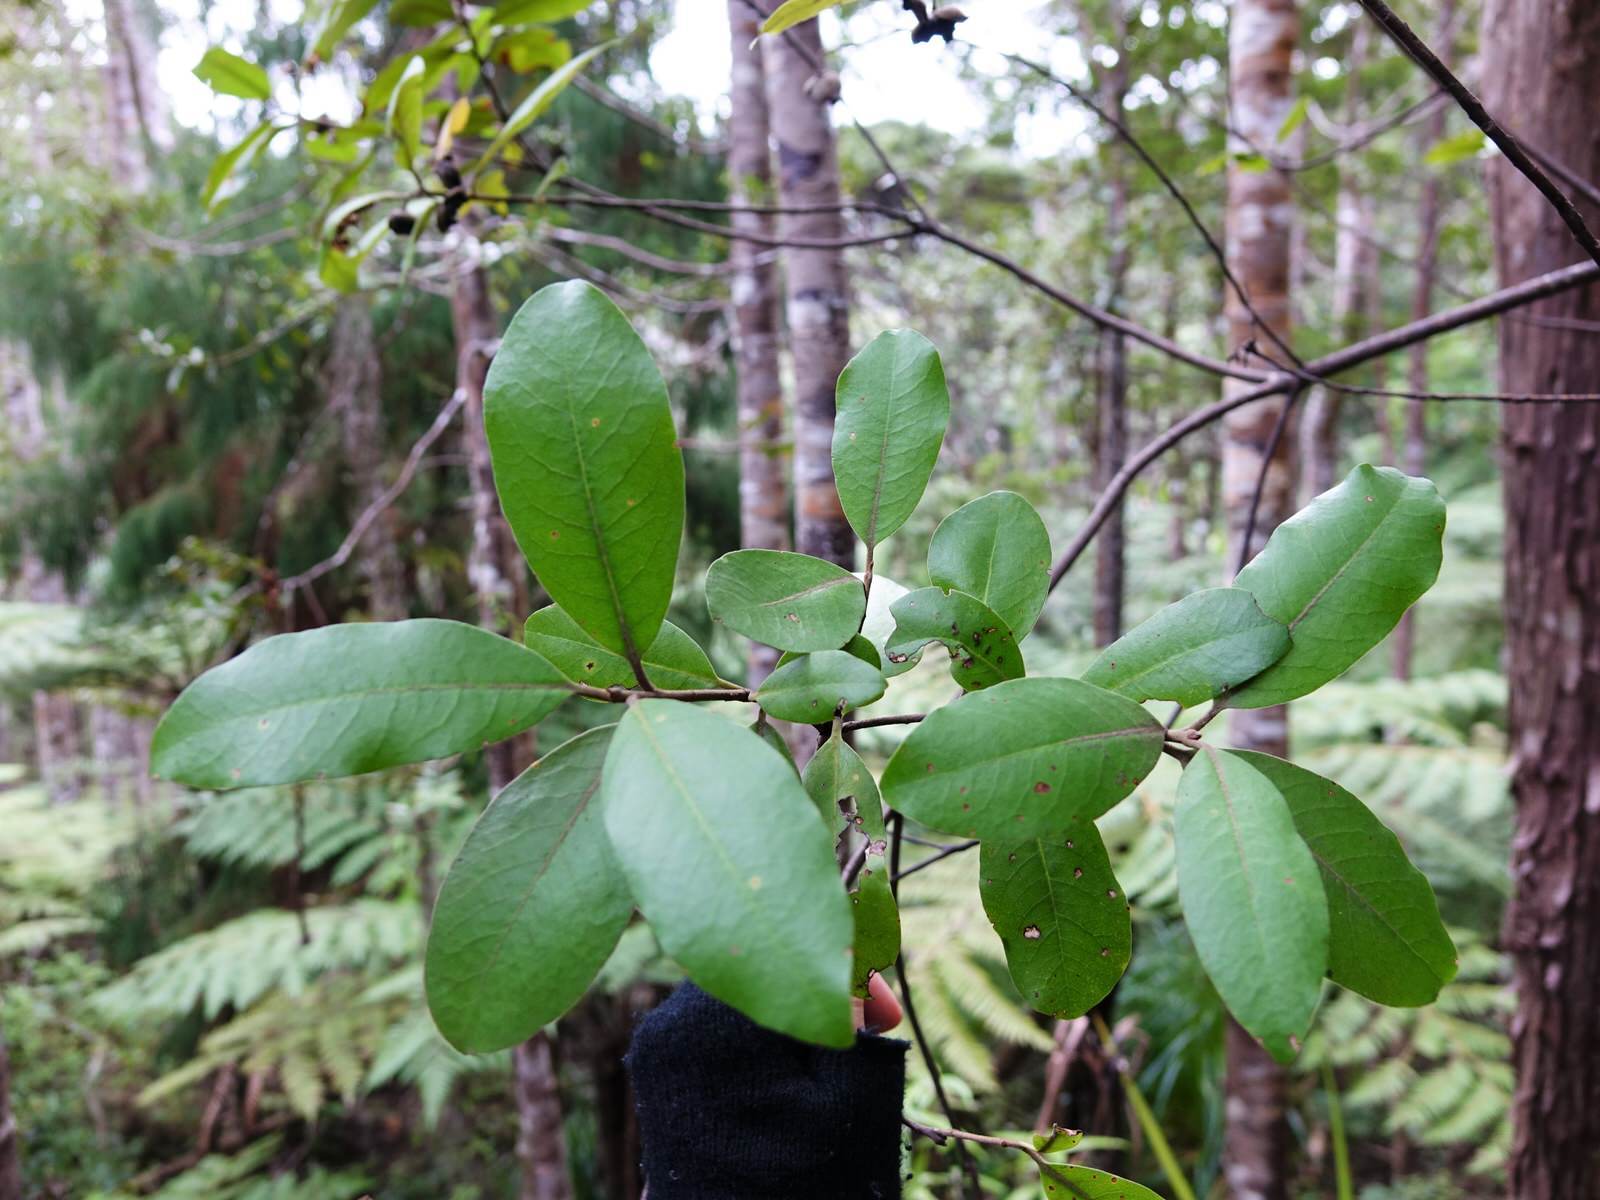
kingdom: Plantae
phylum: Tracheophyta
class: Magnoliopsida
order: Apiales
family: Pittosporaceae
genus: Pittosporum
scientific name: Pittosporum ellipticum
